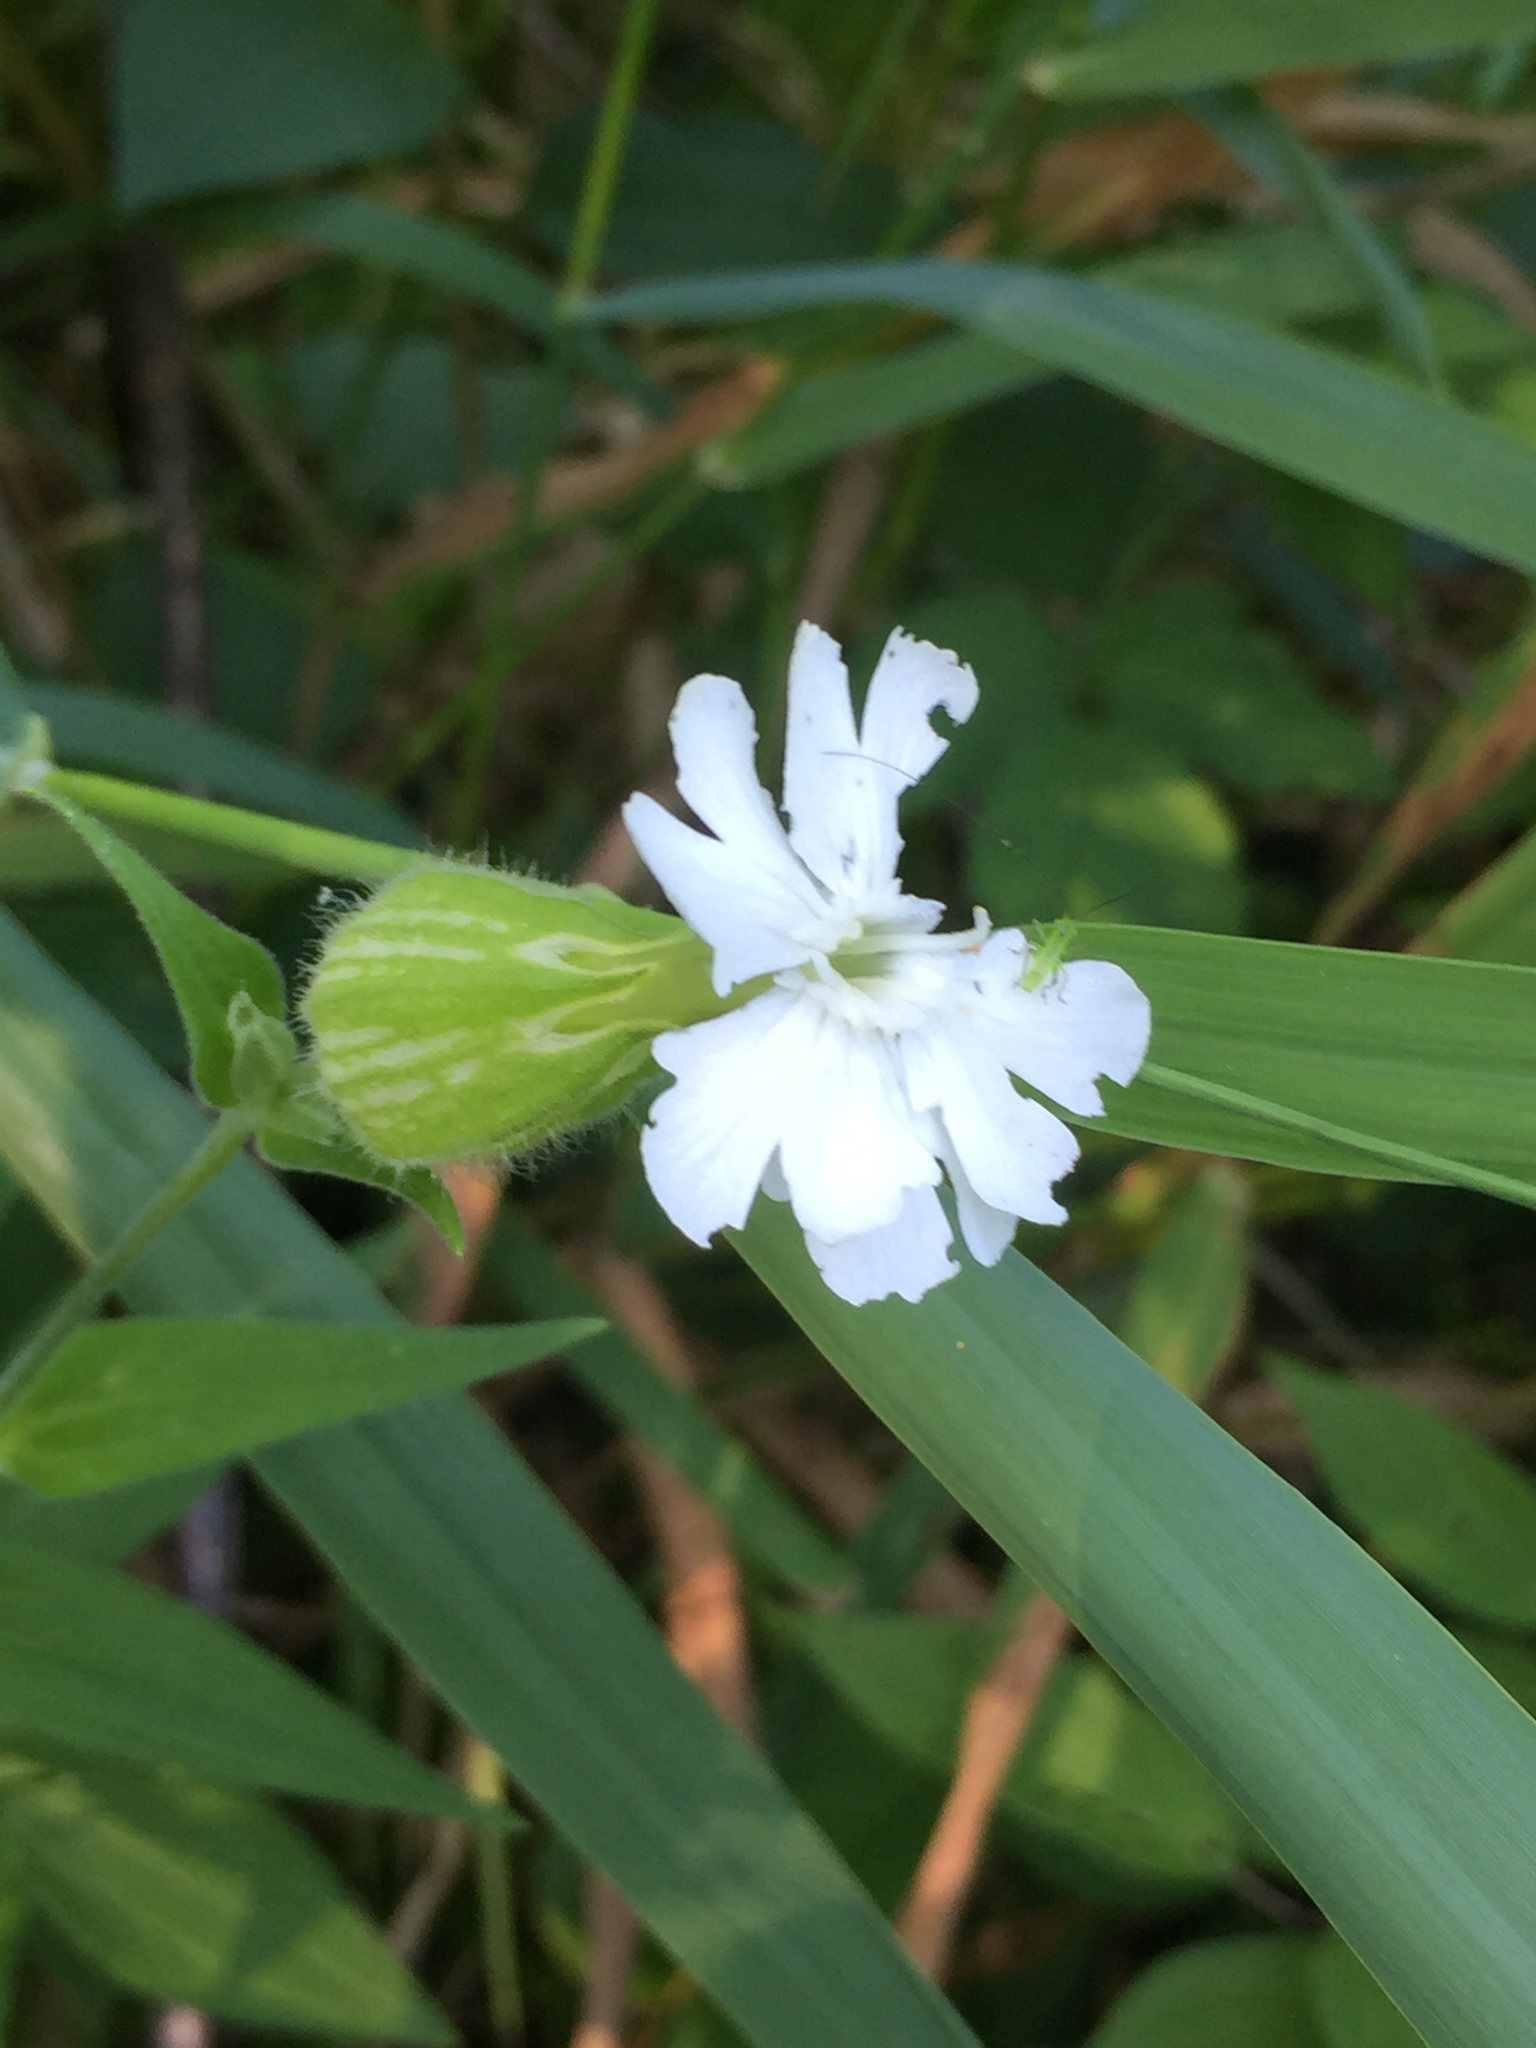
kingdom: Plantae
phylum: Tracheophyta
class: Magnoliopsida
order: Caryophyllales
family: Caryophyllaceae
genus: Silene
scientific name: Silene latifolia
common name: White campion
